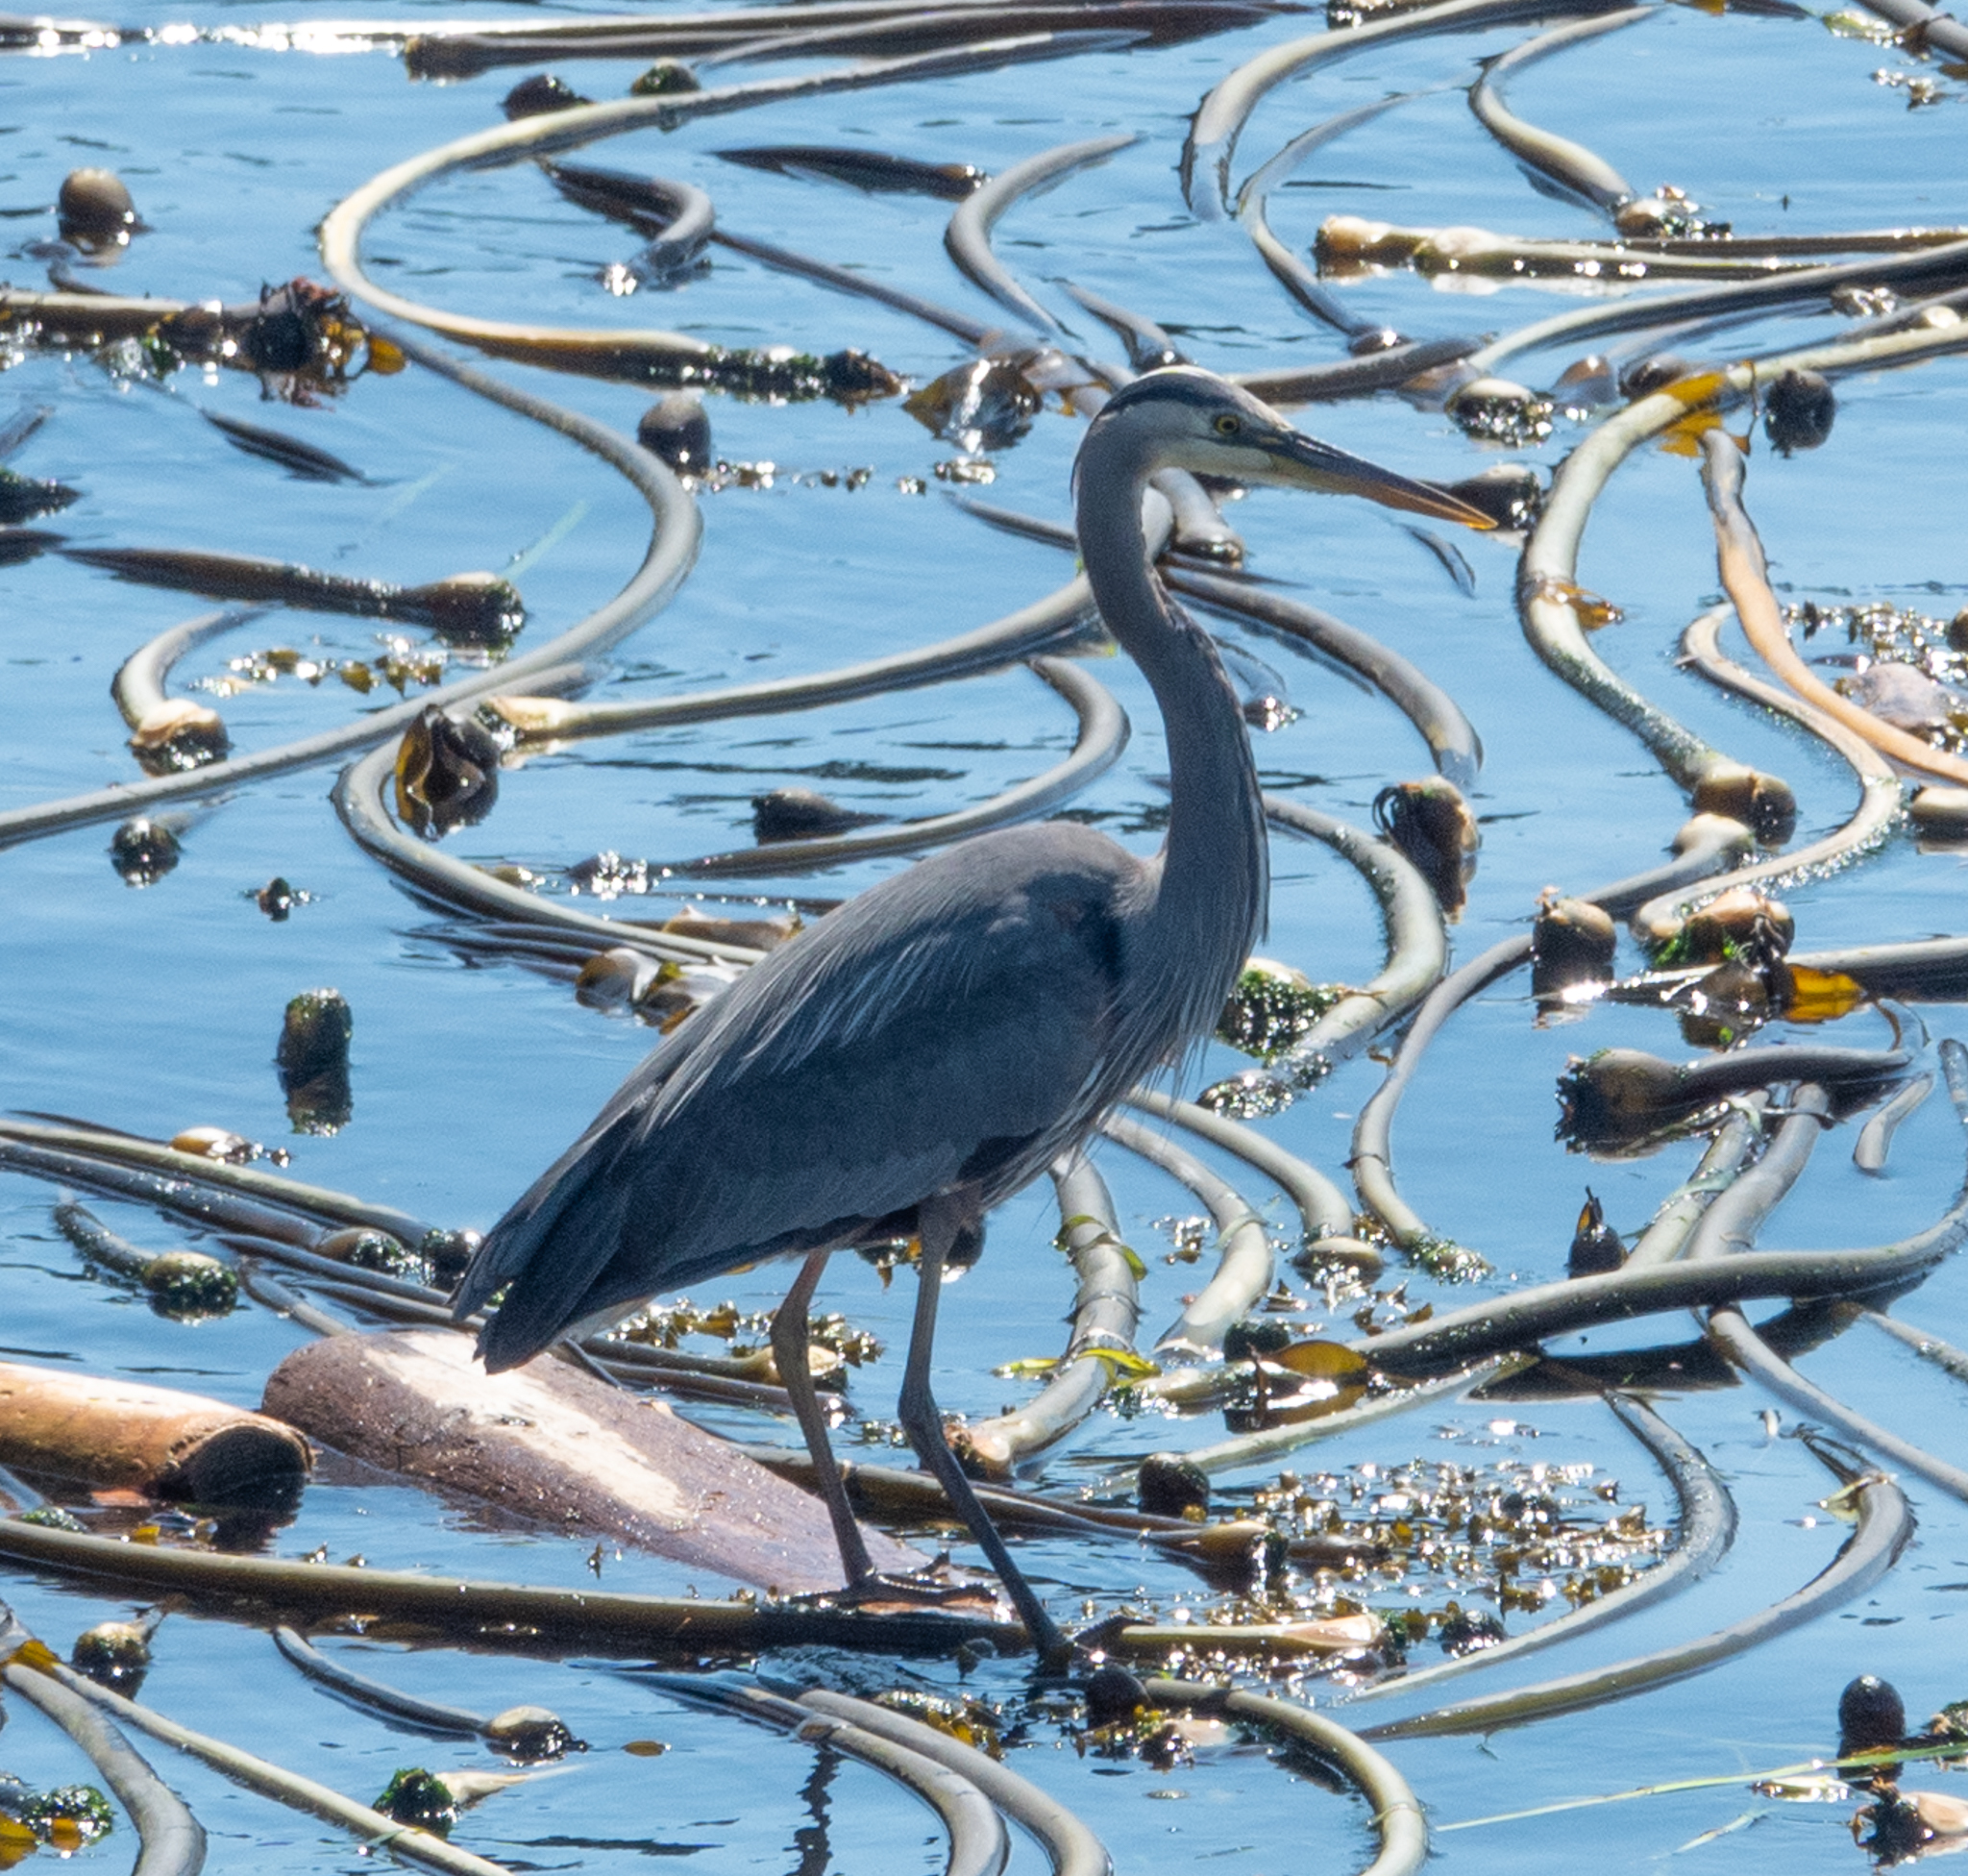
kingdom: Animalia
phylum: Chordata
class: Aves
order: Pelecaniformes
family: Ardeidae
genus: Ardea
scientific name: Ardea herodias
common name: Great blue heron
